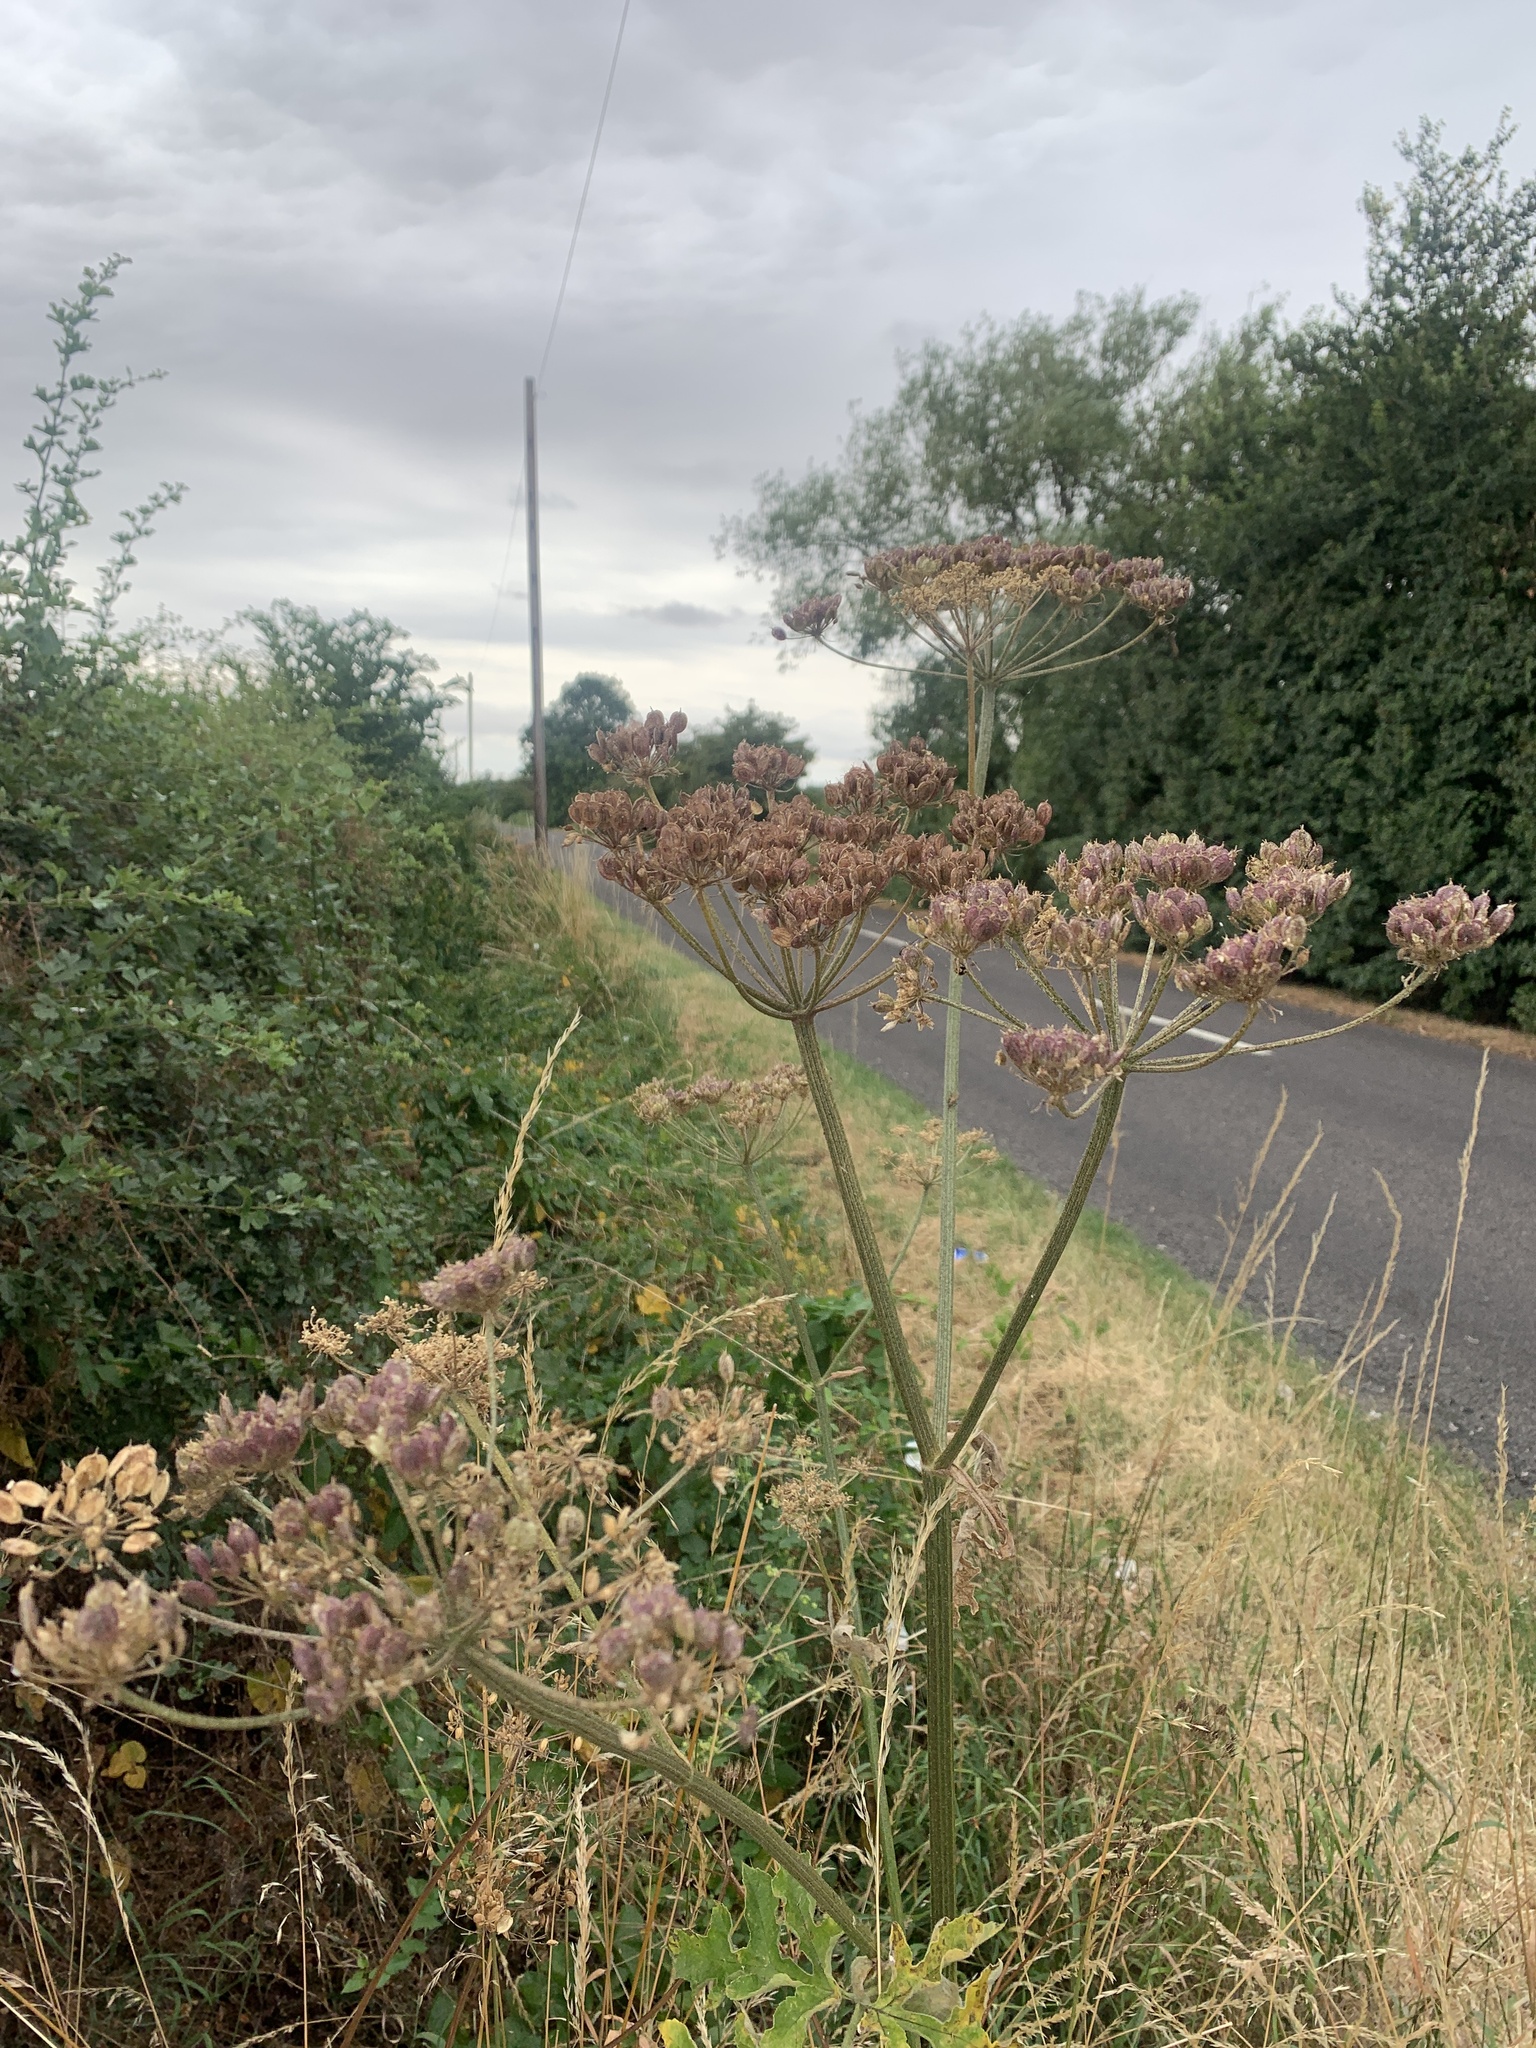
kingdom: Plantae
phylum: Tracheophyta
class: Magnoliopsida
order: Apiales
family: Apiaceae
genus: Heracleum
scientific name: Heracleum sphondylium
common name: Hogweed
